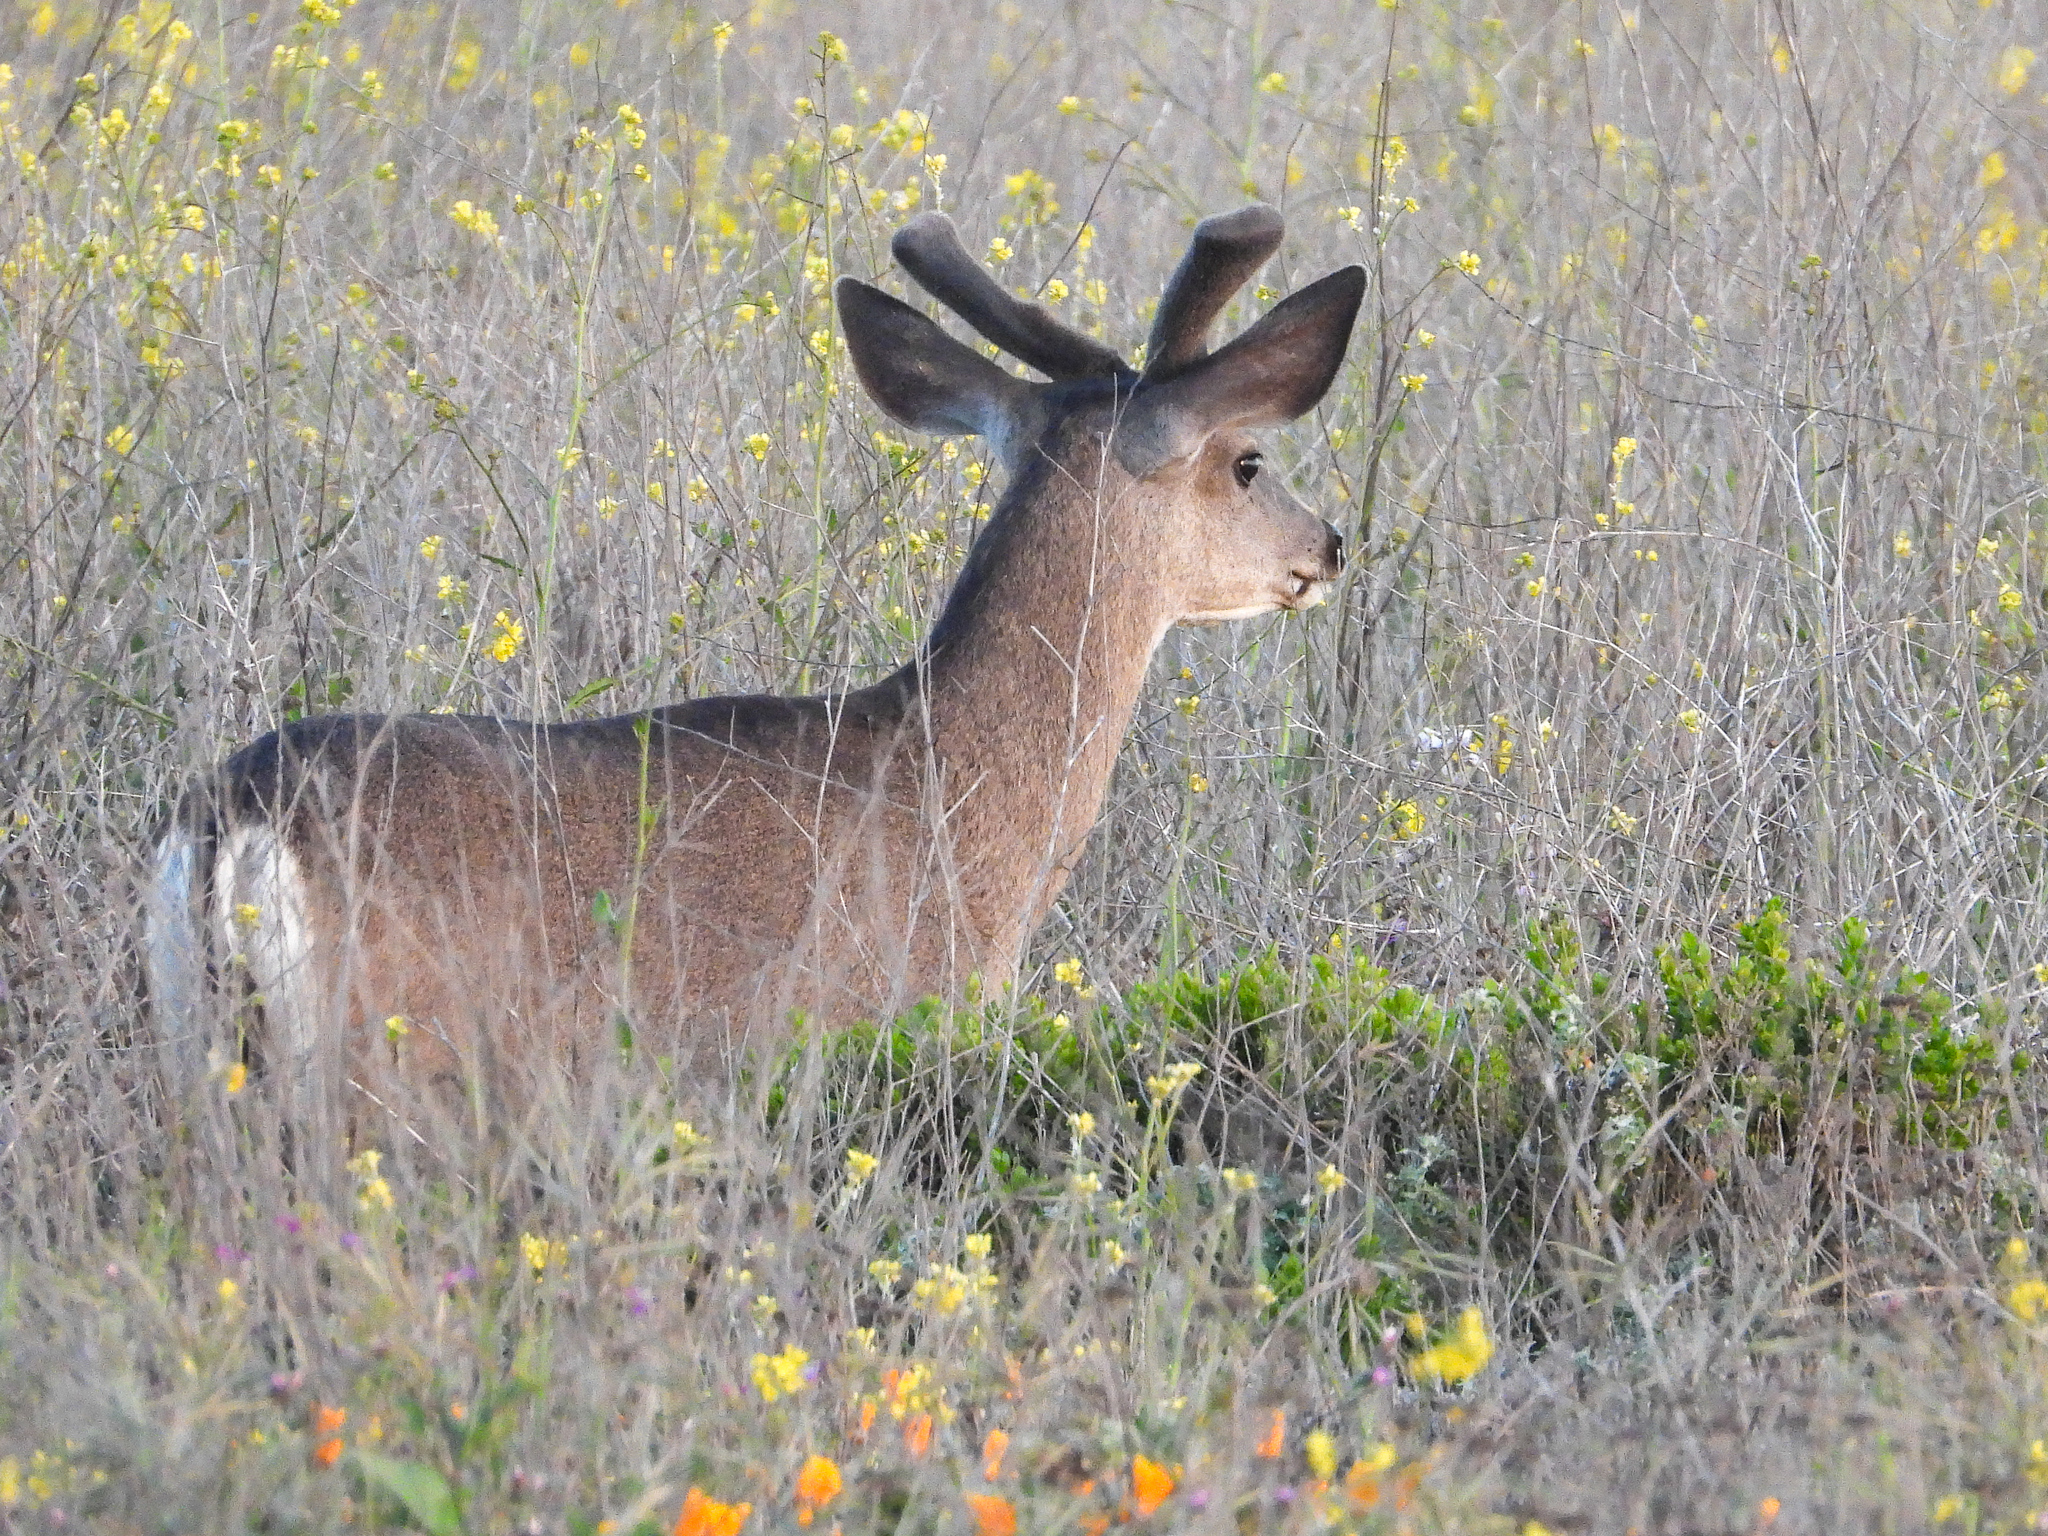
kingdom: Animalia
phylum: Chordata
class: Mammalia
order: Artiodactyla
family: Cervidae
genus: Odocoileus
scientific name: Odocoileus hemionus
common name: Mule deer
